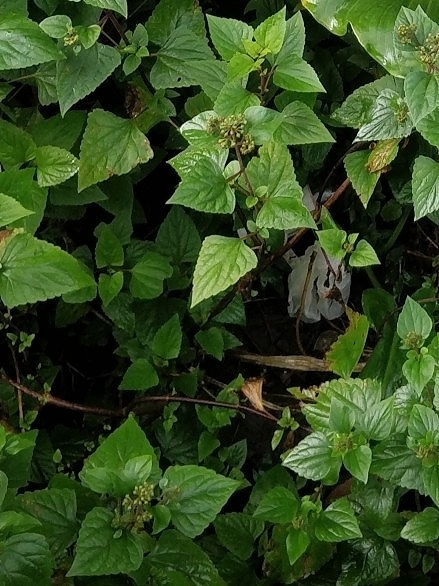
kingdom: Plantae
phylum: Tracheophyta
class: Magnoliopsida
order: Asterales
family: Asteraceae
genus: Ageratina
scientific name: Ageratina adenophora
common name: Sticky snakeroot
